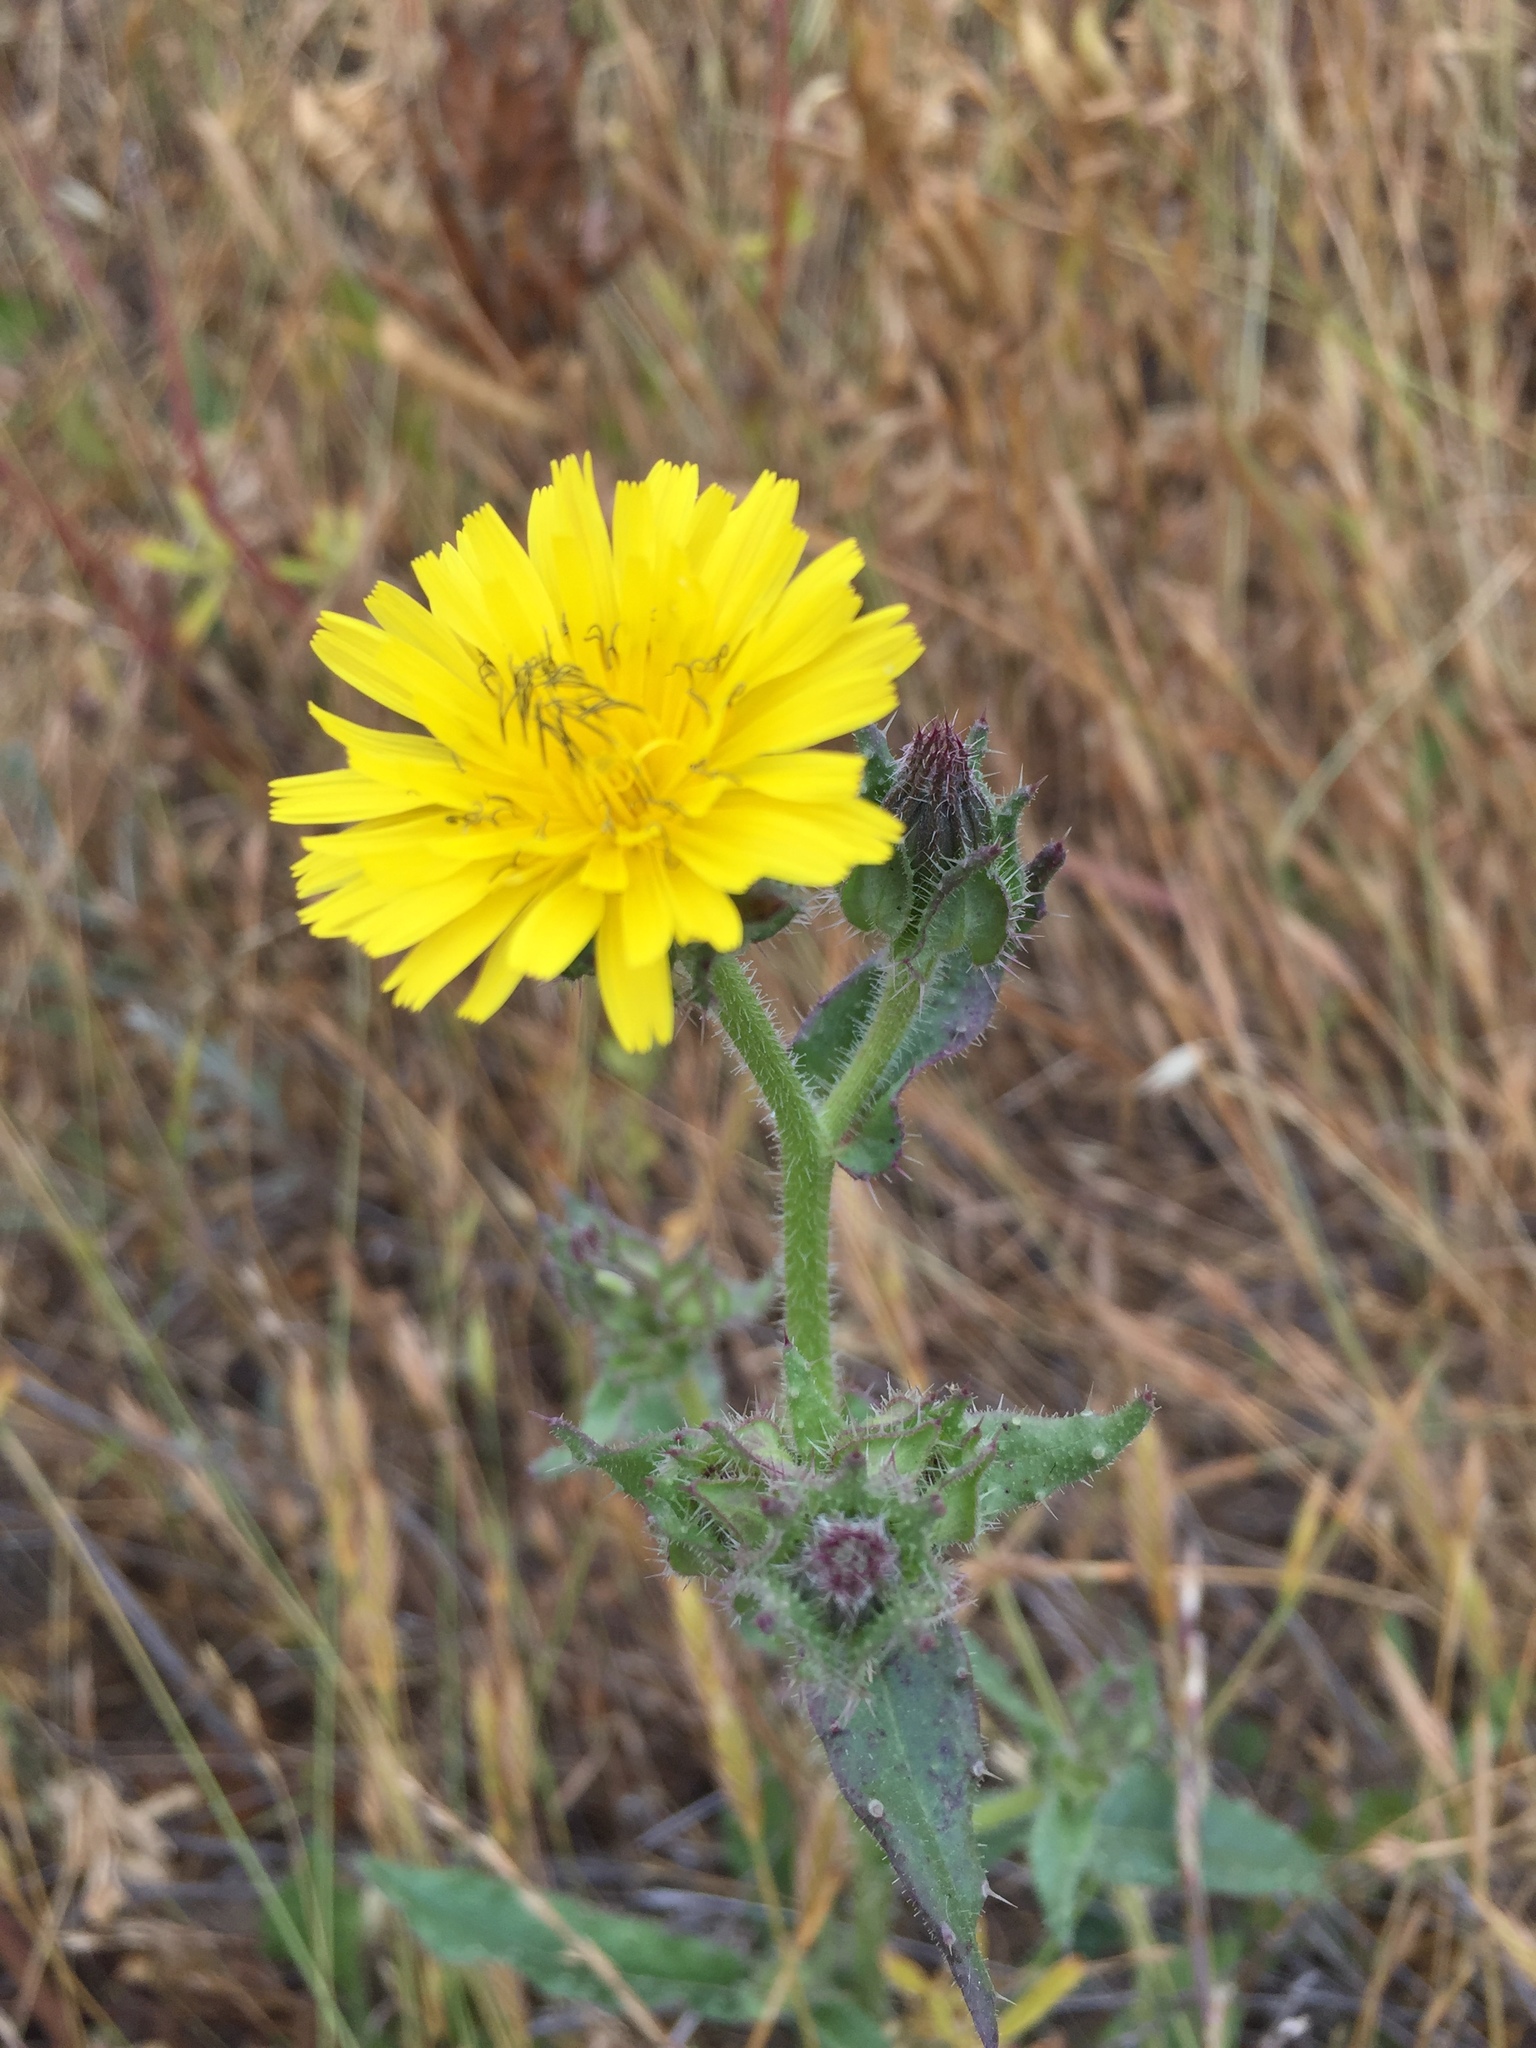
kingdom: Plantae
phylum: Tracheophyta
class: Magnoliopsida
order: Asterales
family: Asteraceae
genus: Helminthotheca
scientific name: Helminthotheca echioides
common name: Ox-tongue
